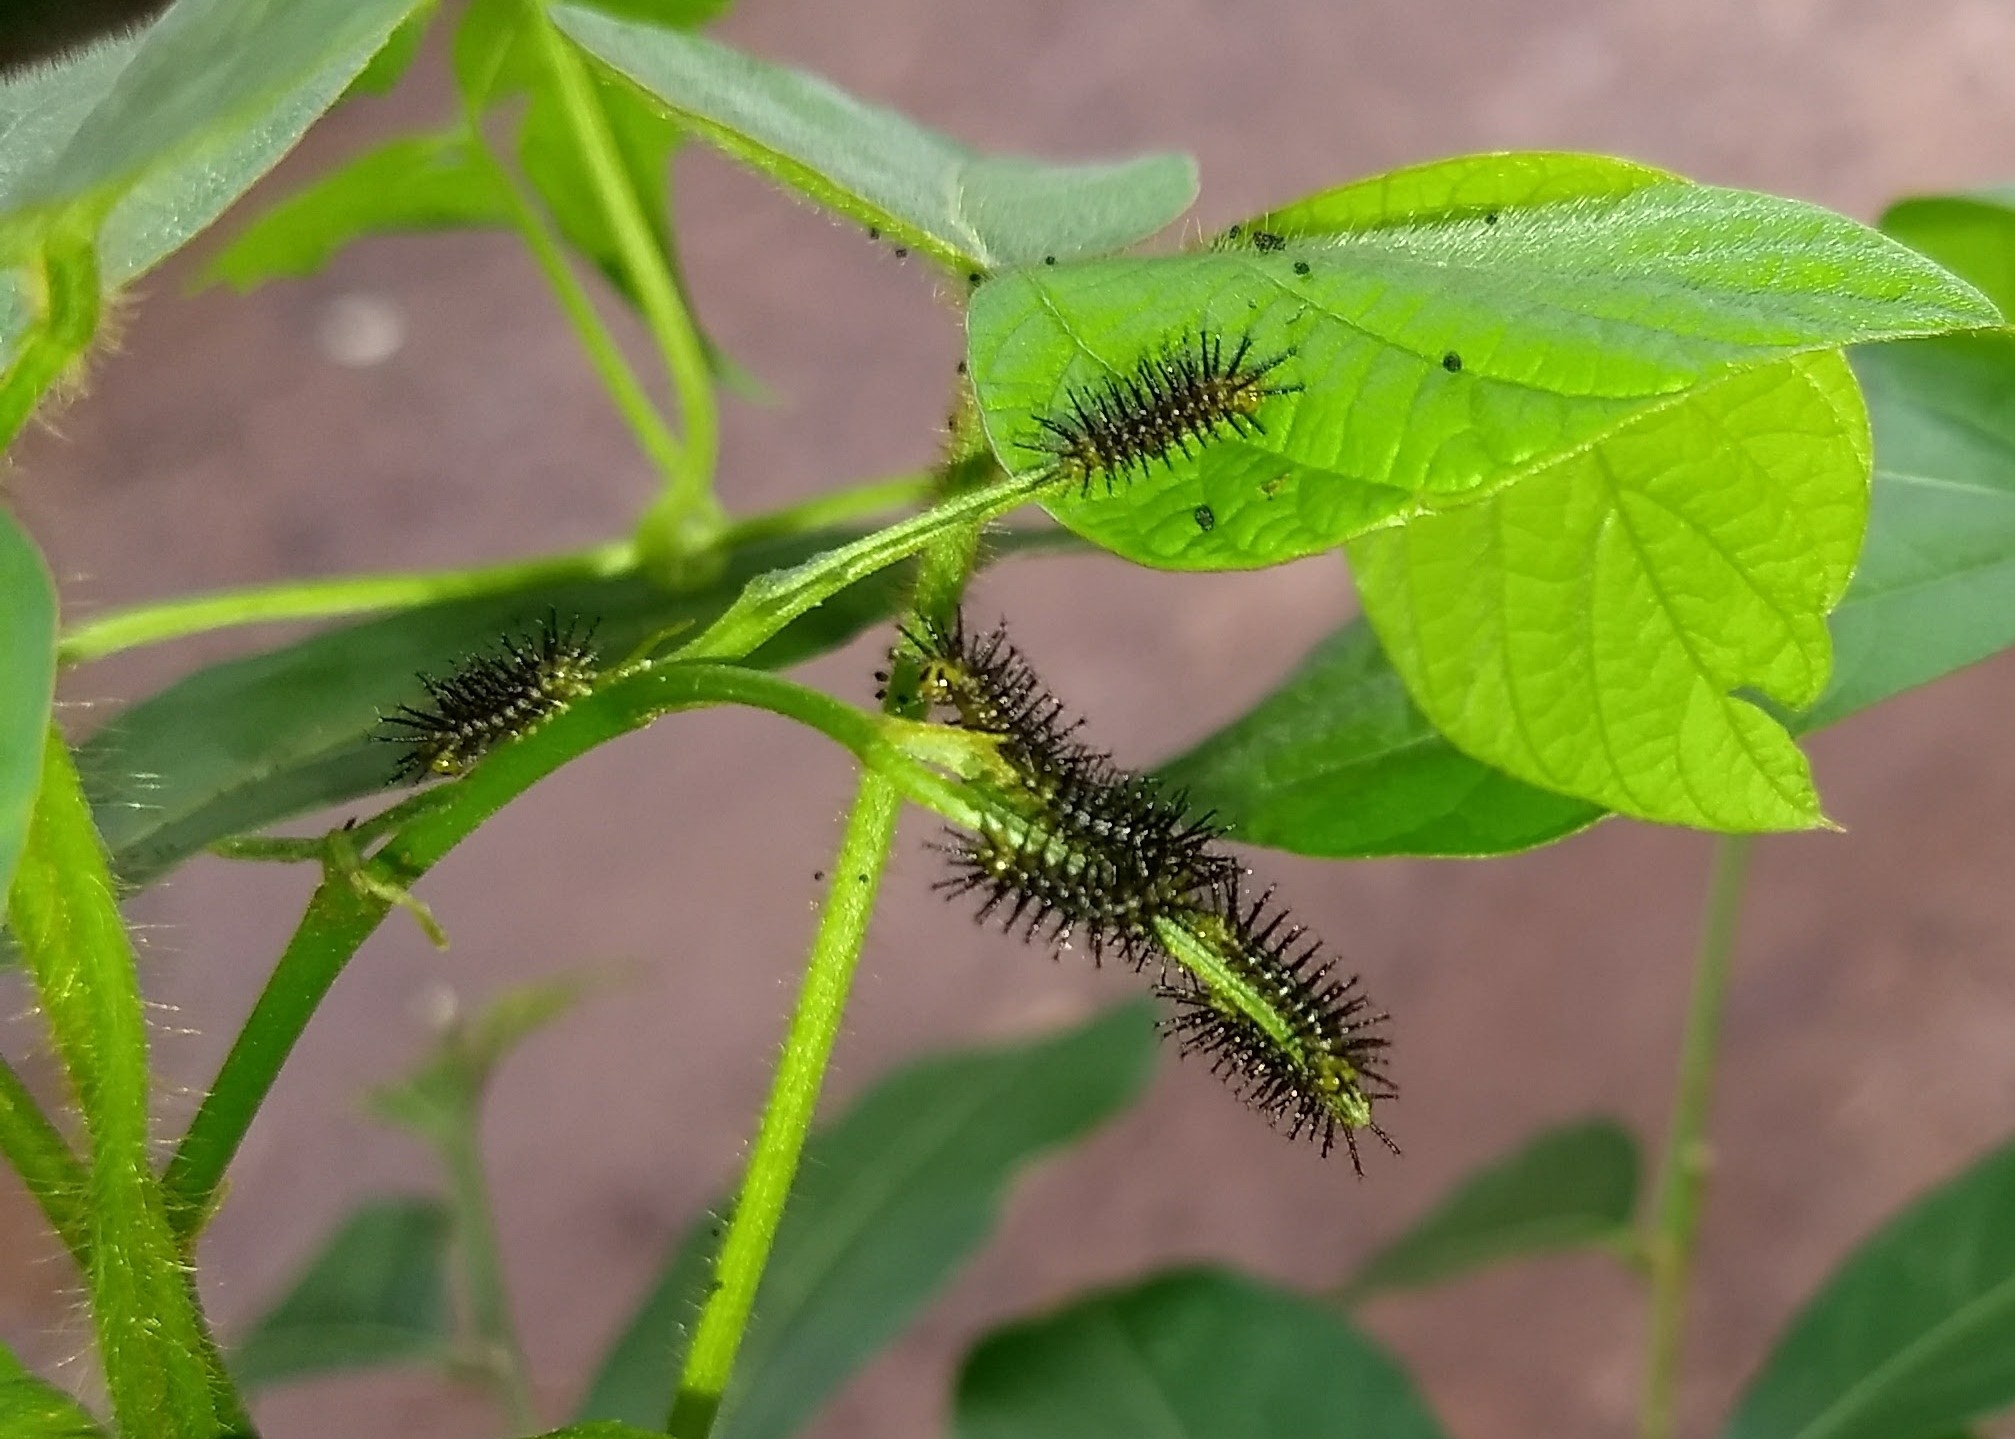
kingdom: Animalia
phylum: Arthropoda
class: Insecta
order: Lepidoptera
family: Nymphalidae
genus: Cirrochroa
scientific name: Cirrochroa thais
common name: Tamil yeoman
